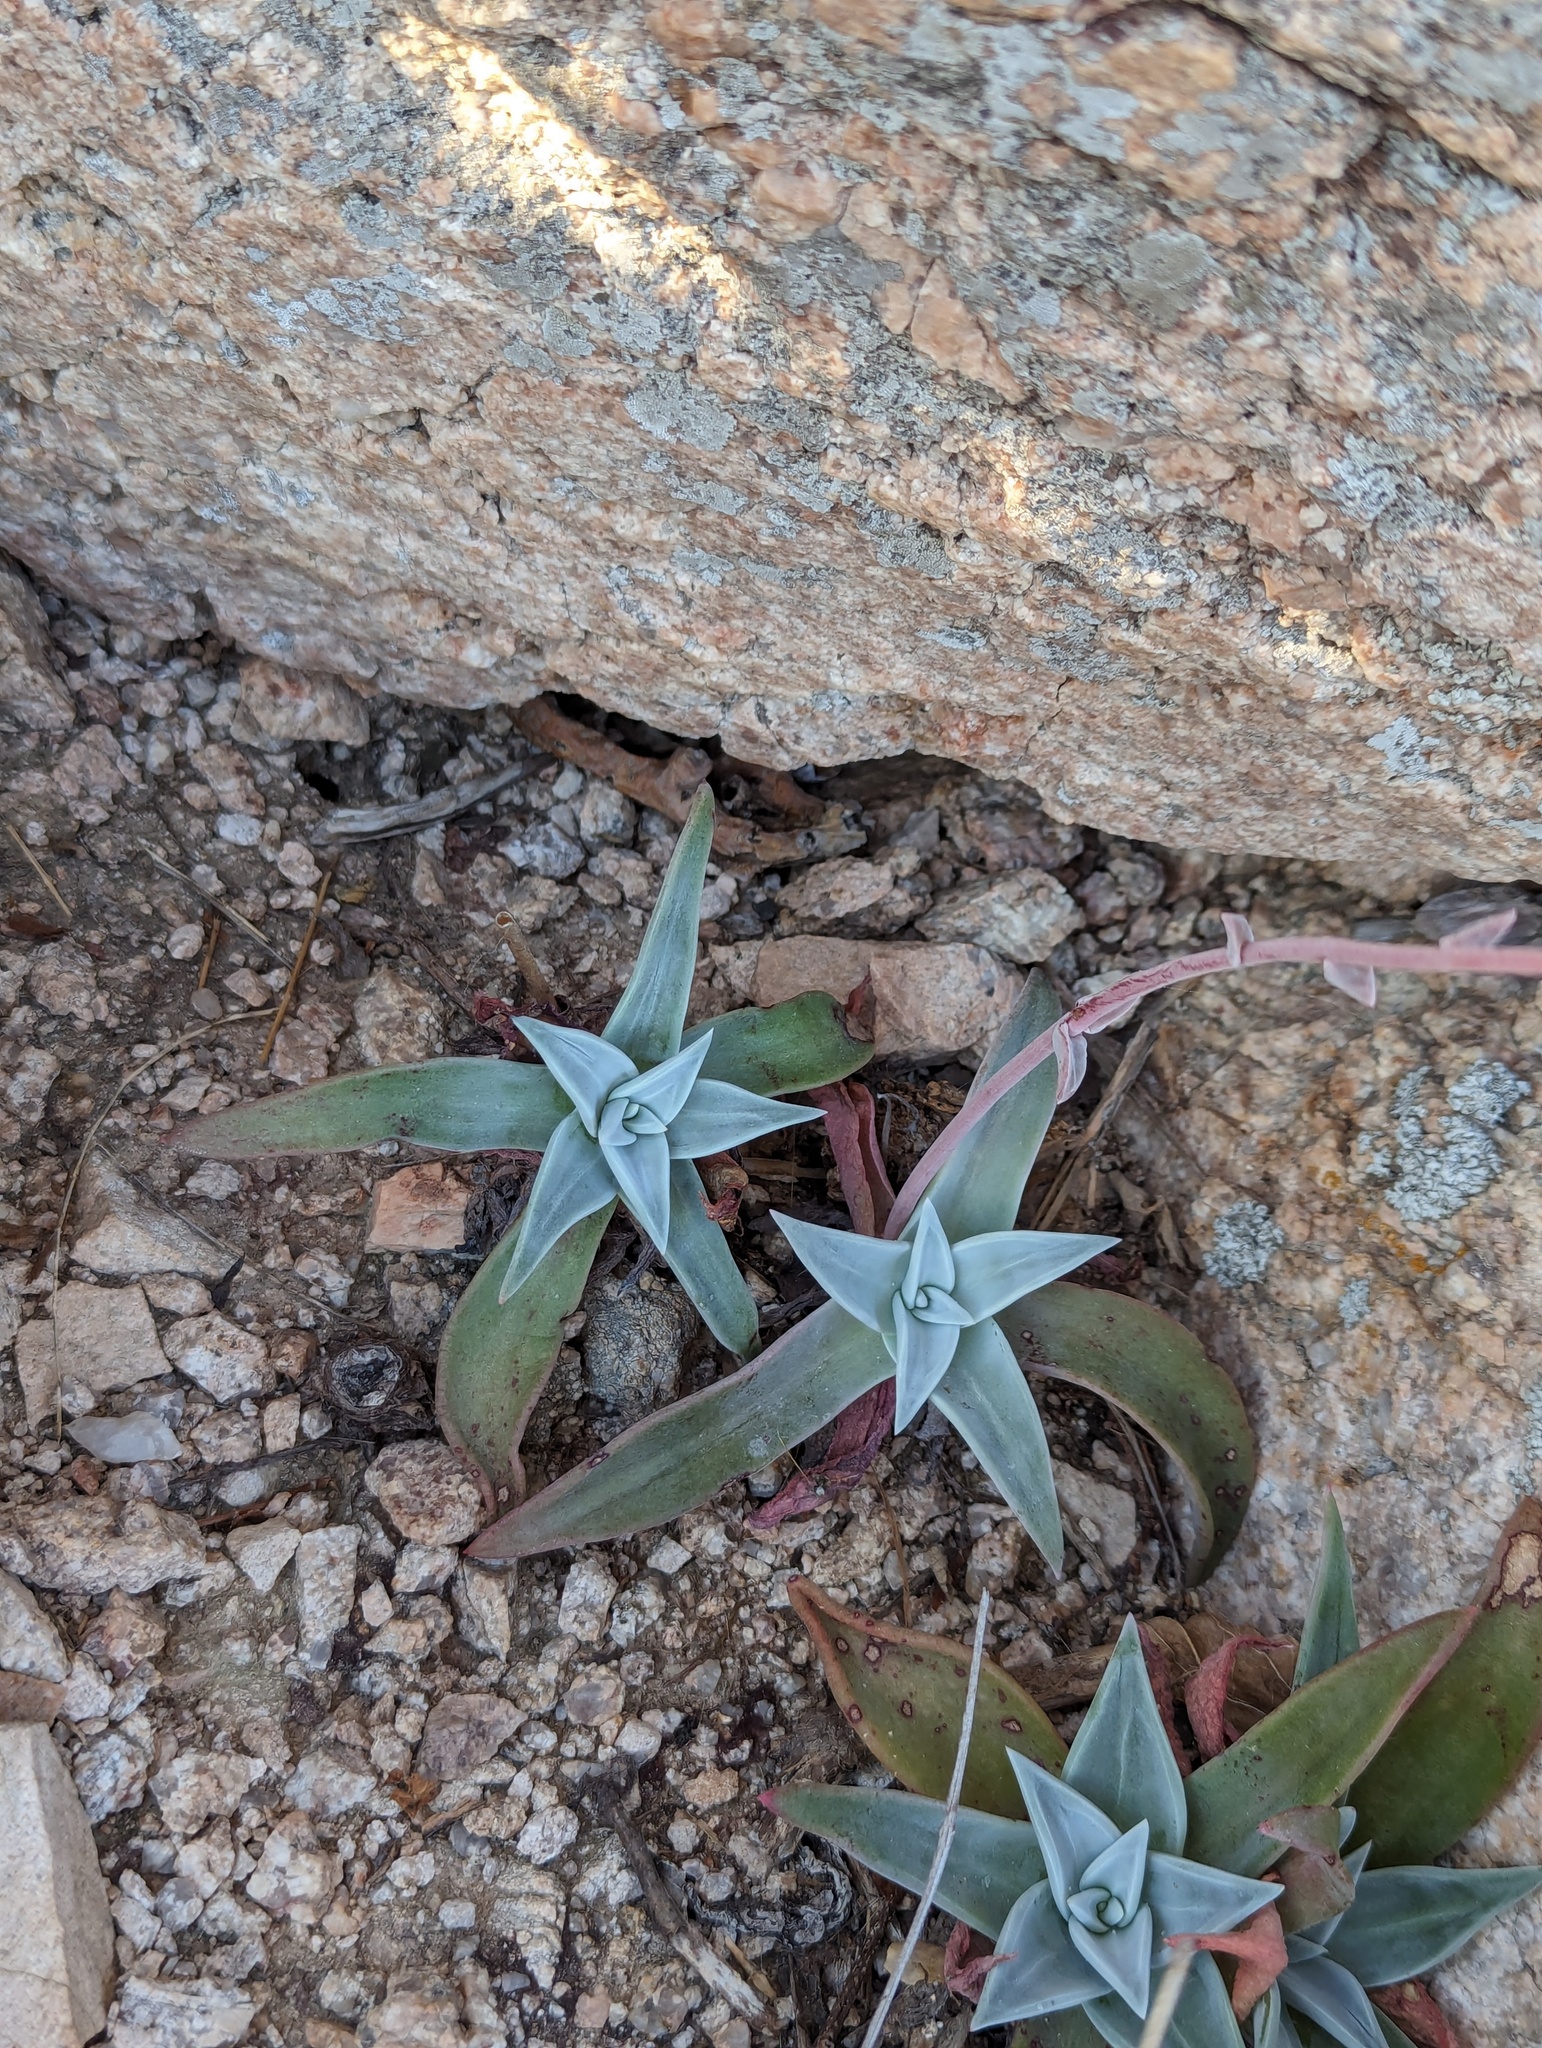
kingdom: Plantae
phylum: Tracheophyta
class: Magnoliopsida
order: Saxifragales
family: Crassulaceae
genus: Dudleya
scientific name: Dudleya nubigena
